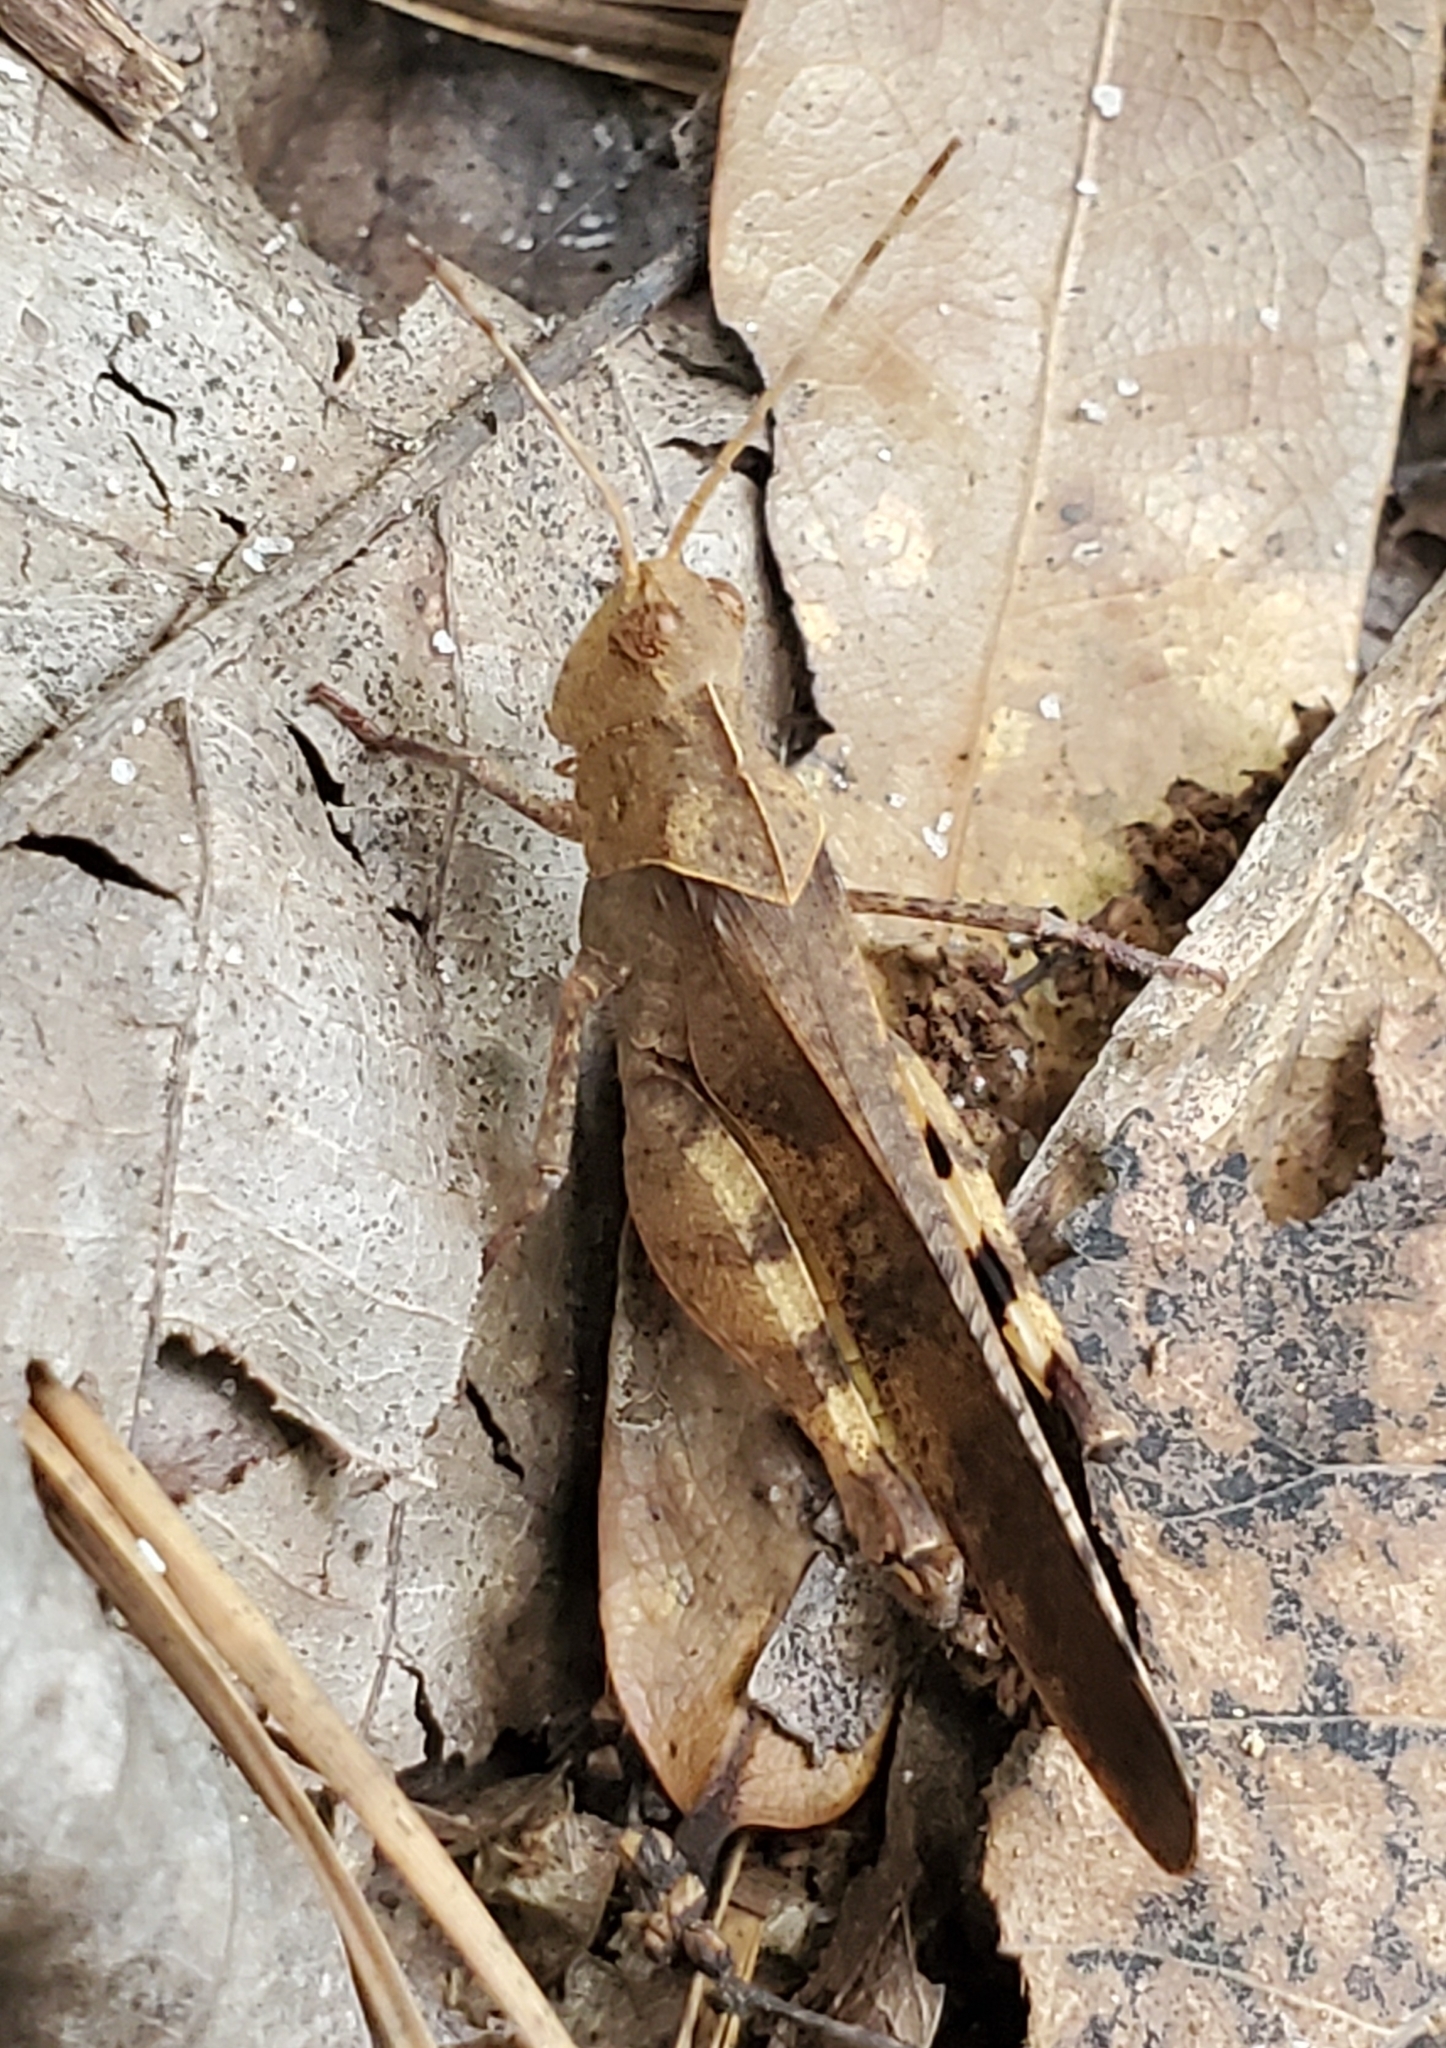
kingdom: Animalia
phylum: Arthropoda
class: Insecta
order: Orthoptera
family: Acrididae
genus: Spharagemon
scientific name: Spharagemon crepitans
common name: Crepitating grasshopper
